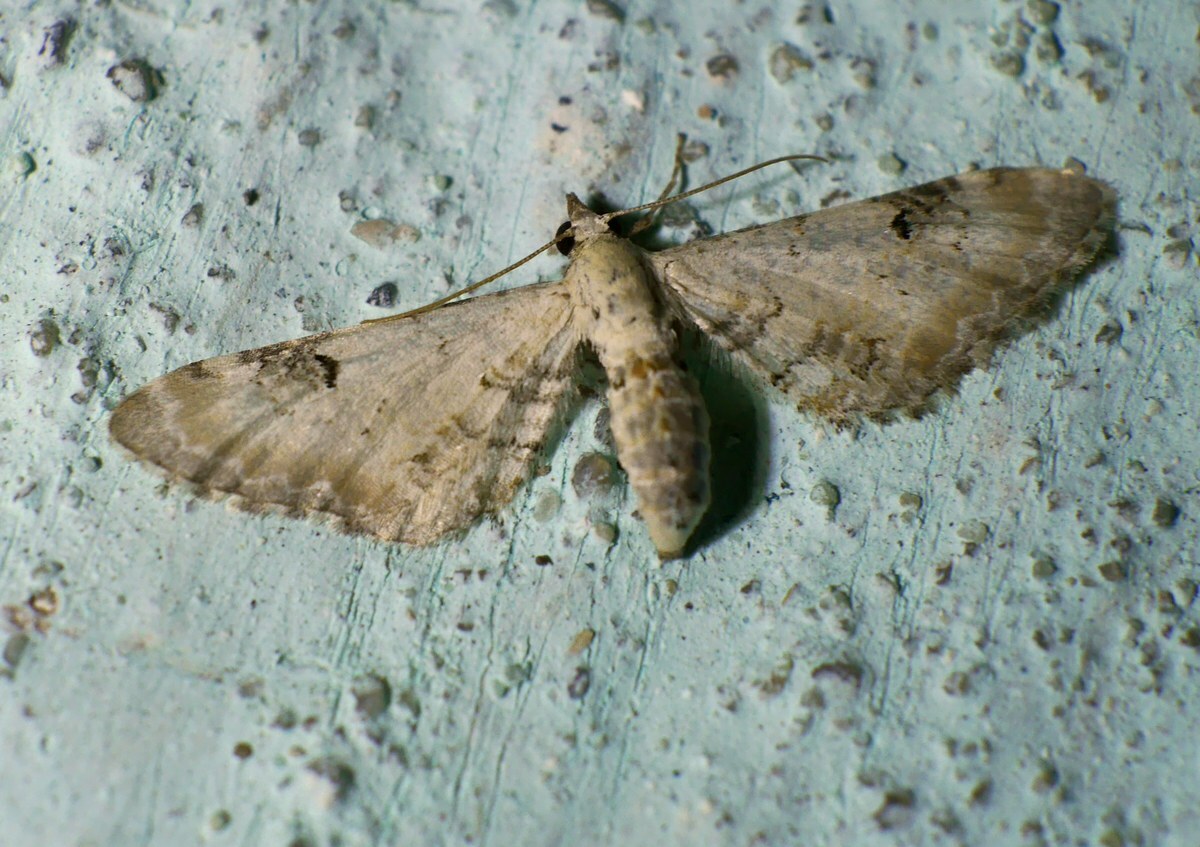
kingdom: Animalia
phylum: Arthropoda
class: Insecta
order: Lepidoptera
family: Geometridae
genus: Eupithecia
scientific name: Eupithecia centaureata
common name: Lime-speck pug
